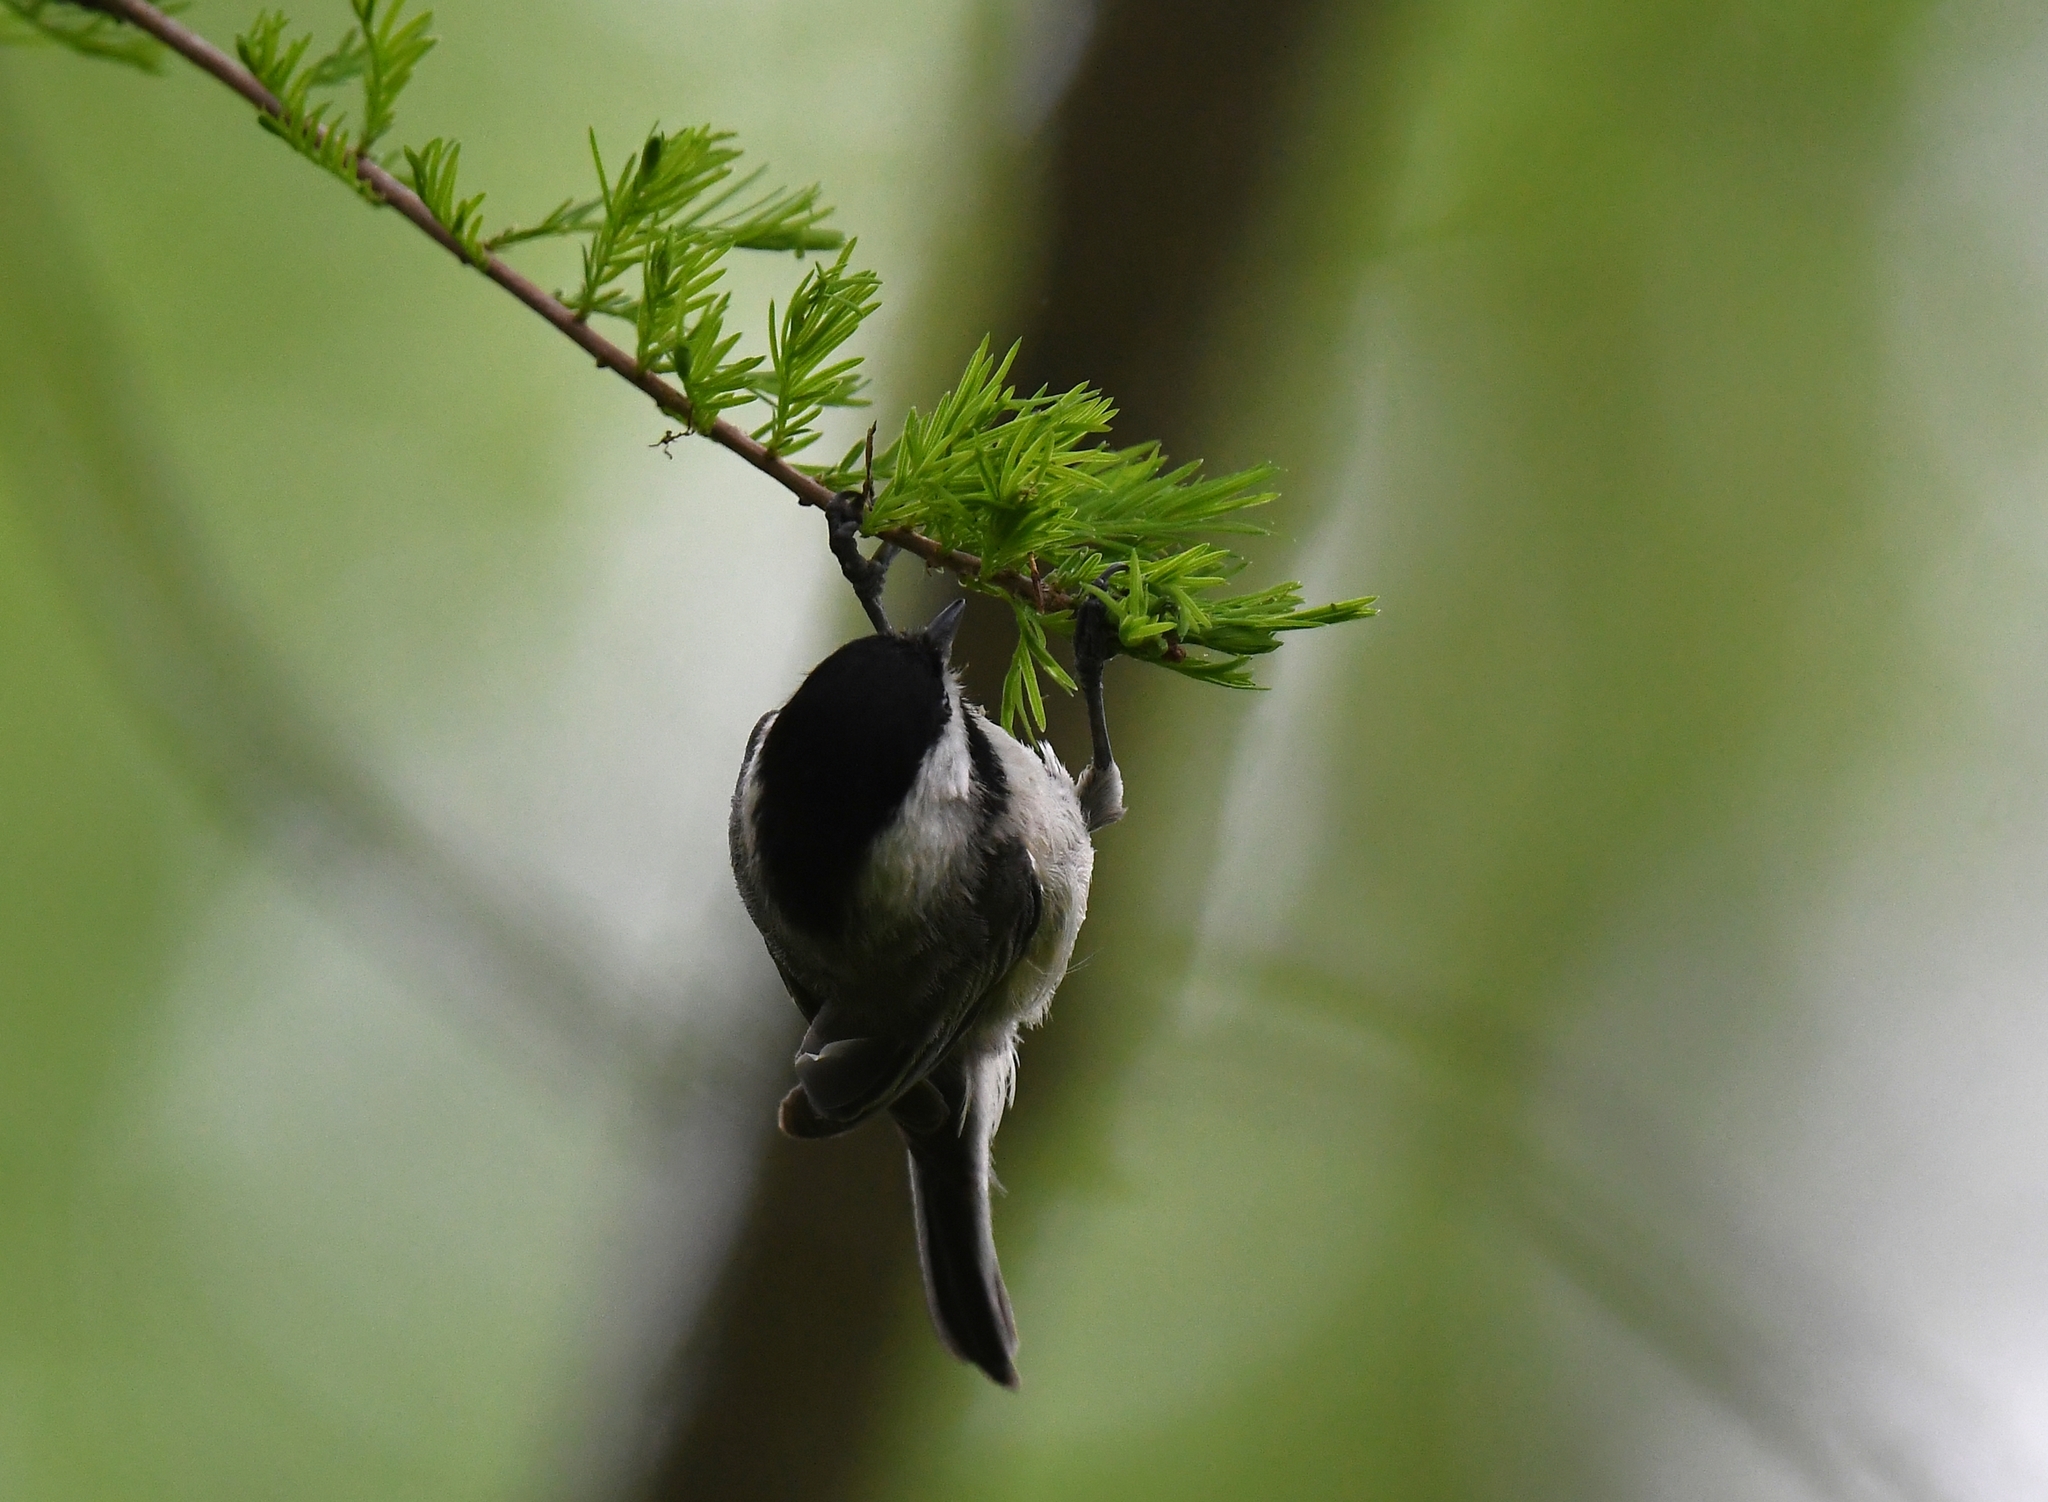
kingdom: Animalia
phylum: Chordata
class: Aves
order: Passeriformes
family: Paridae
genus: Poecile
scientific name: Poecile
